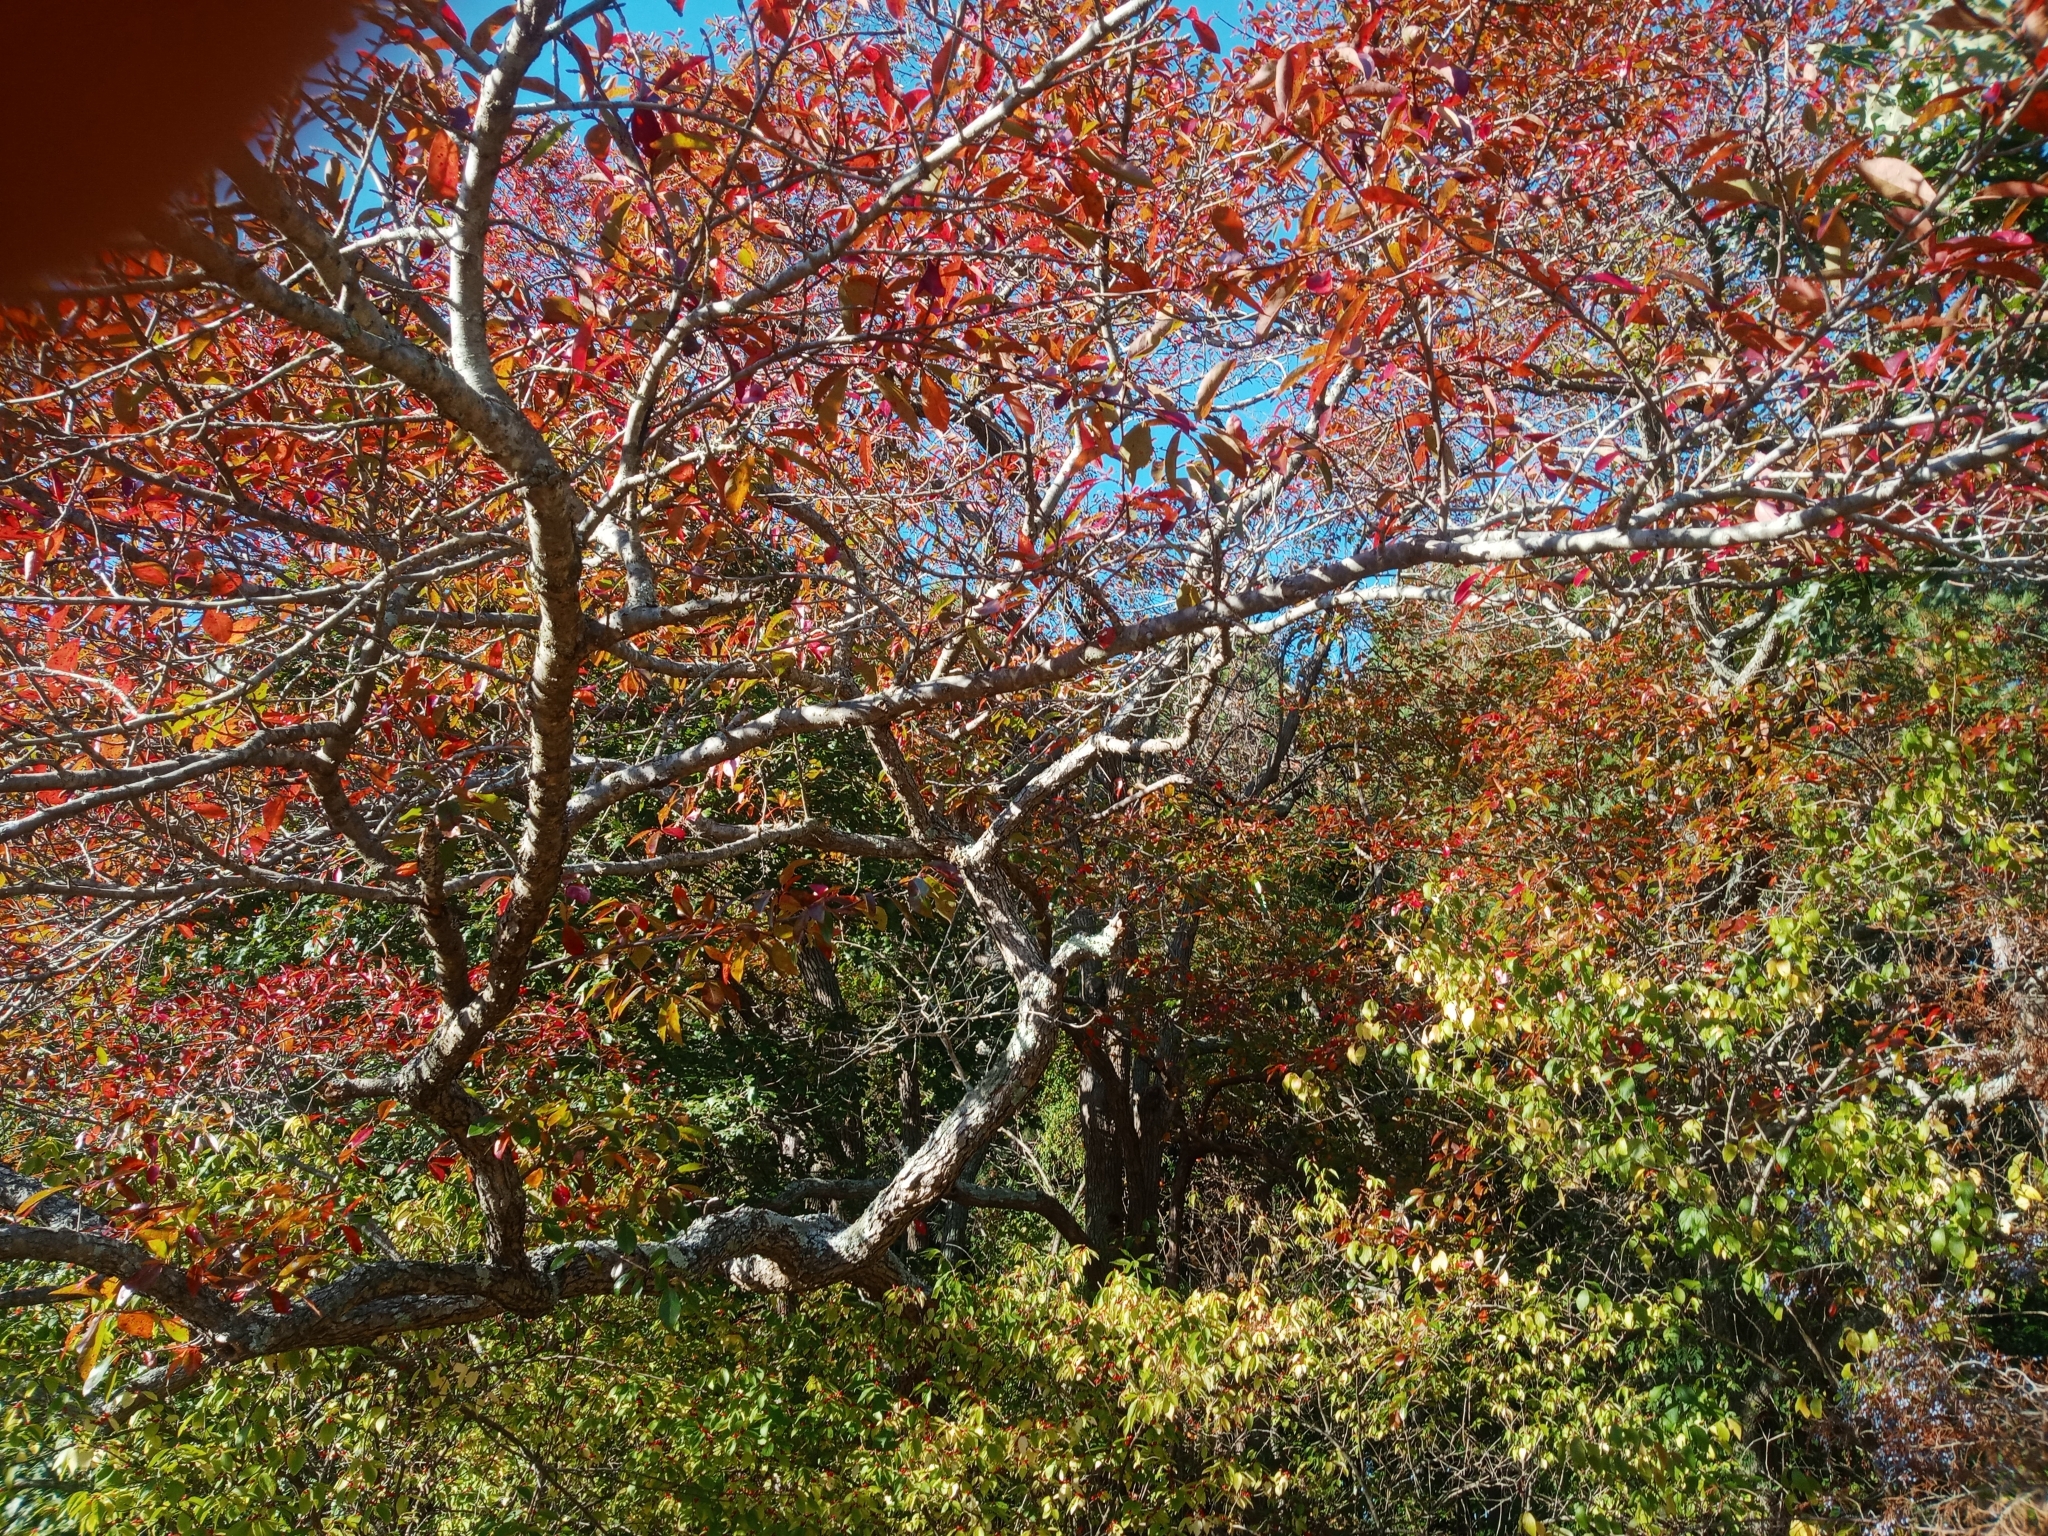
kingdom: Plantae
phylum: Tracheophyta
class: Magnoliopsida
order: Cornales
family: Nyssaceae
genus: Nyssa
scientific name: Nyssa sylvatica
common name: Black tupelo
